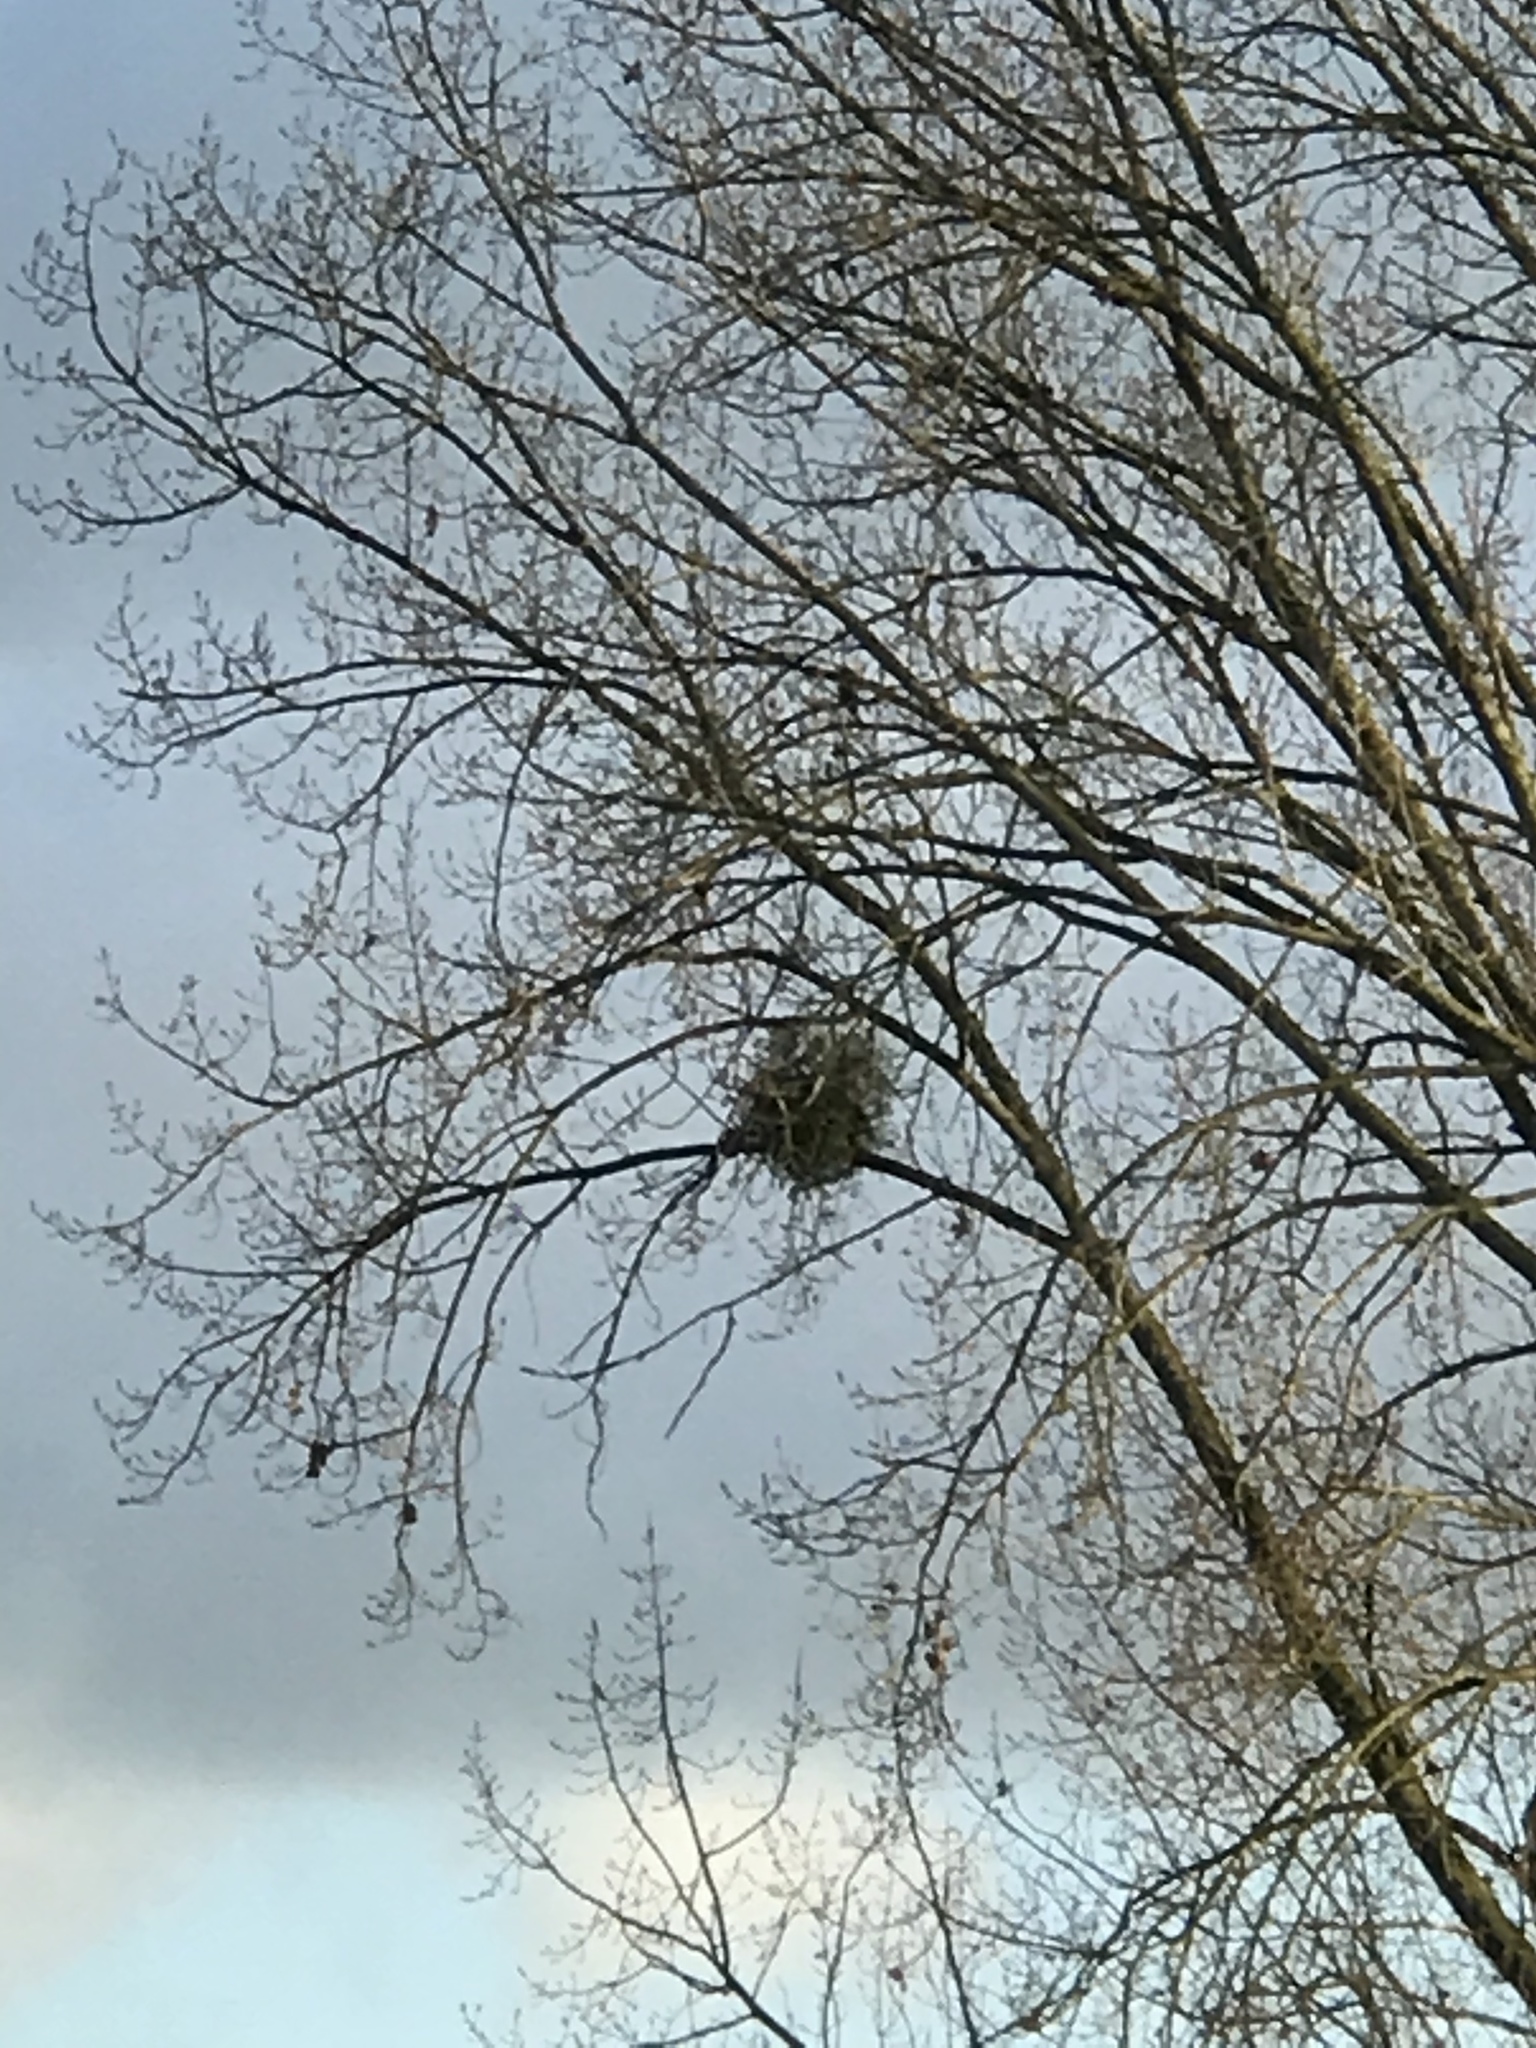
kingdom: Plantae
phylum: Tracheophyta
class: Magnoliopsida
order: Santalales
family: Viscaceae
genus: Viscum
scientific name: Viscum album
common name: Mistletoe
